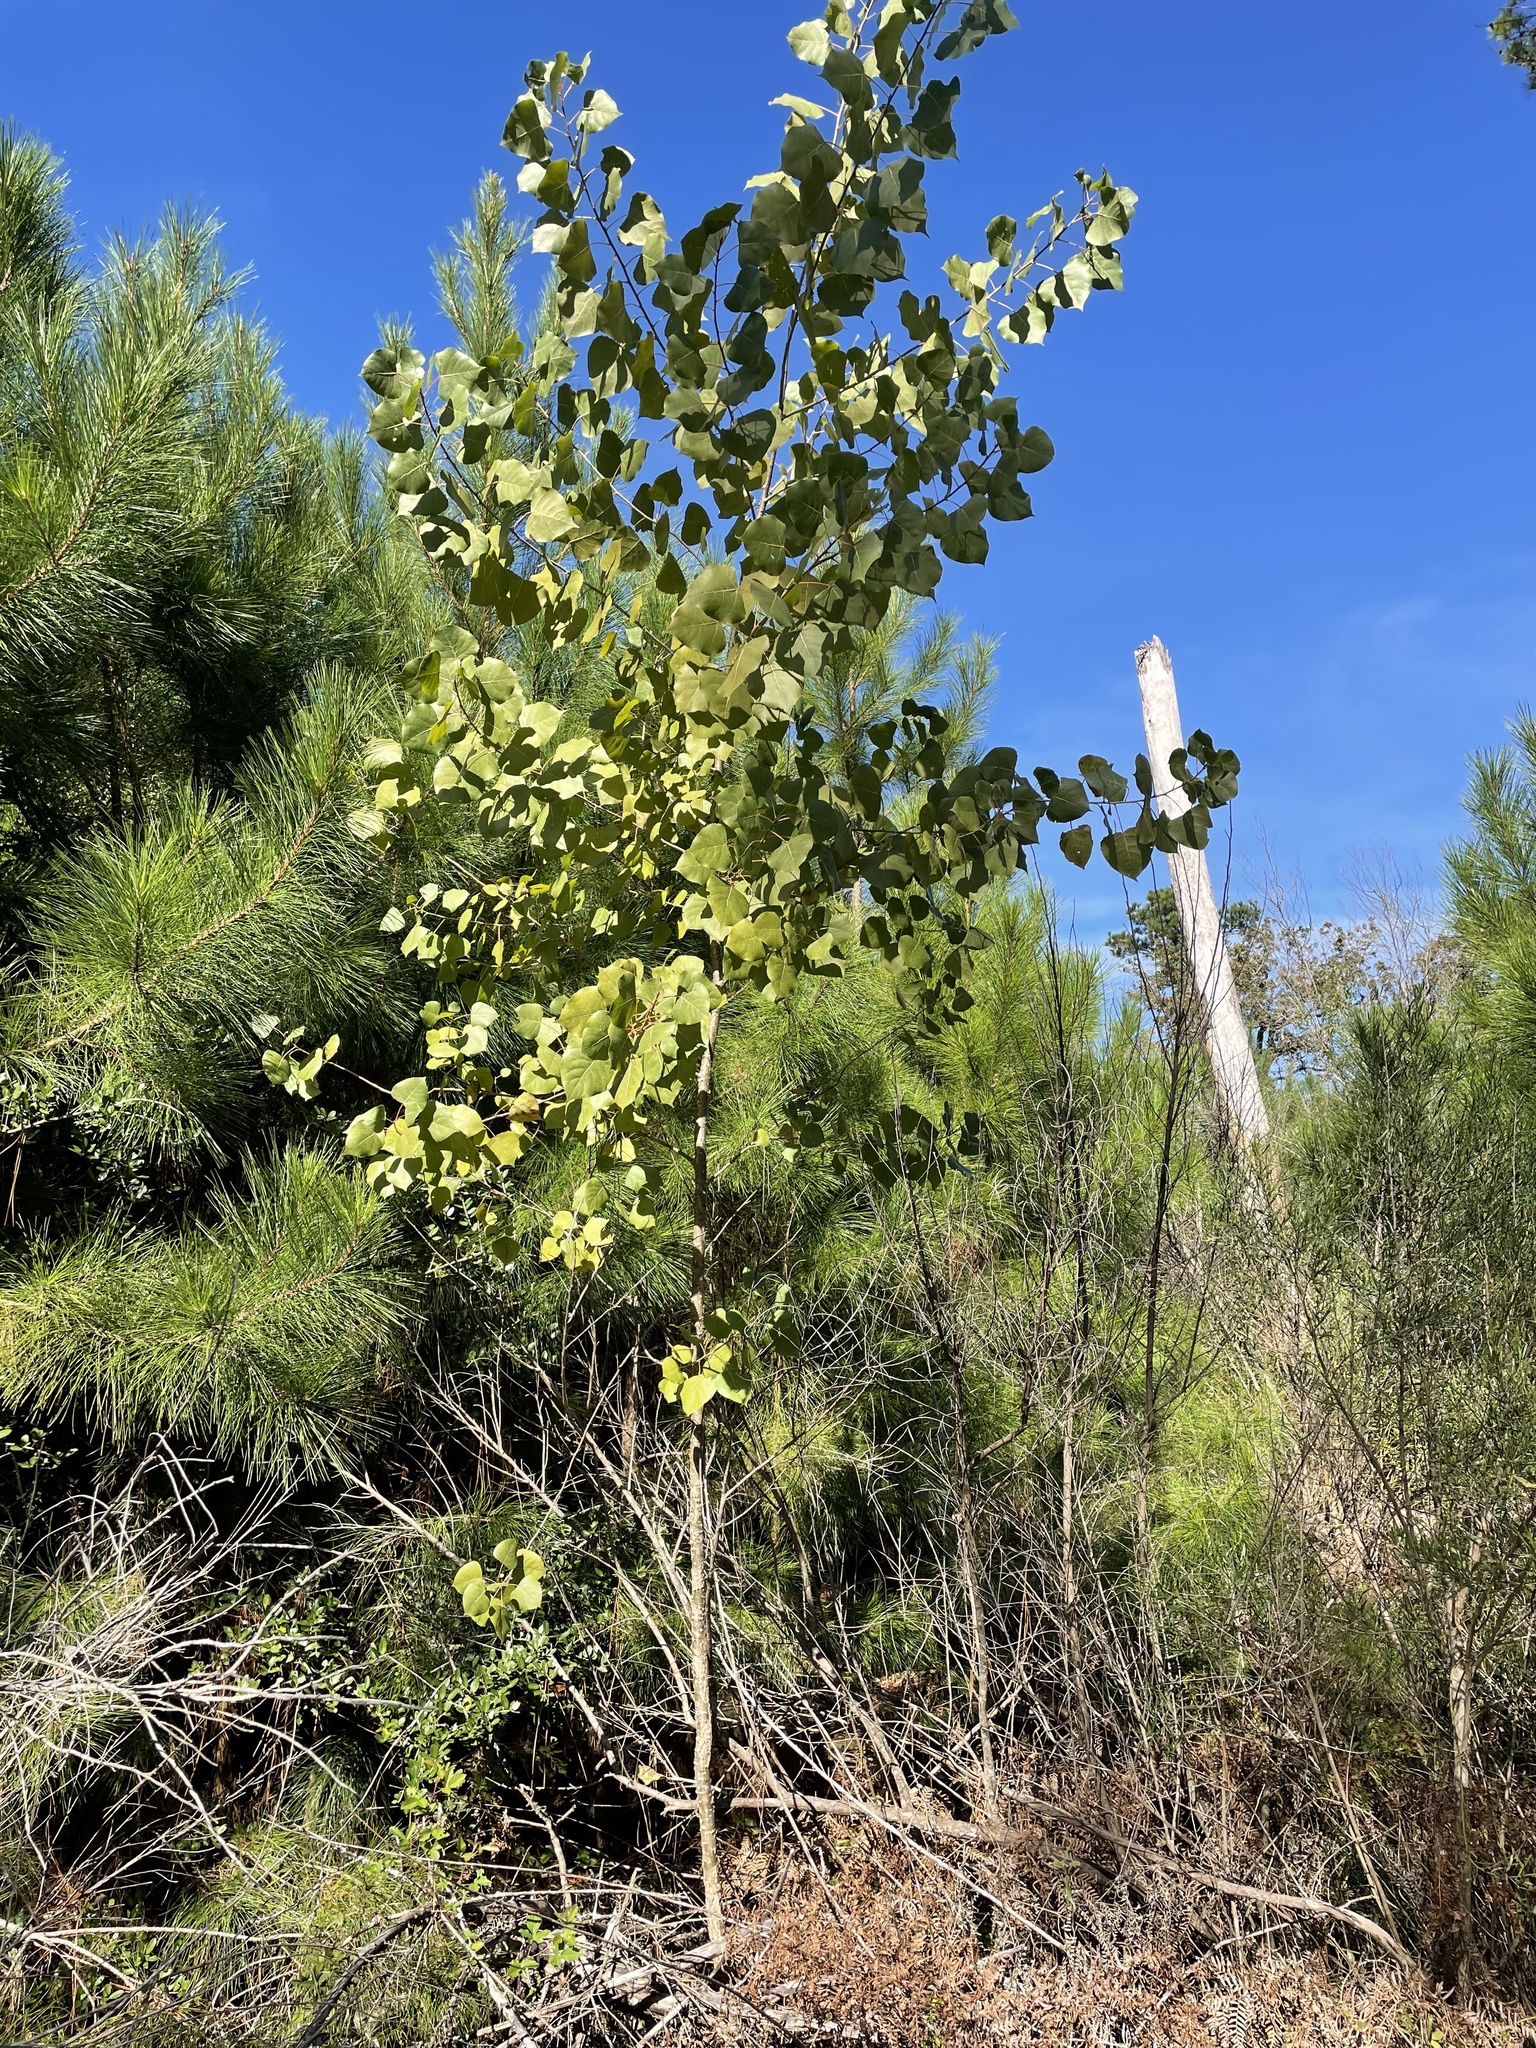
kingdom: Plantae
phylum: Tracheophyta
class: Magnoliopsida
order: Malpighiales
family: Salicaceae
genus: Populus
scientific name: Populus deltoides
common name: Eastern cottonwood
